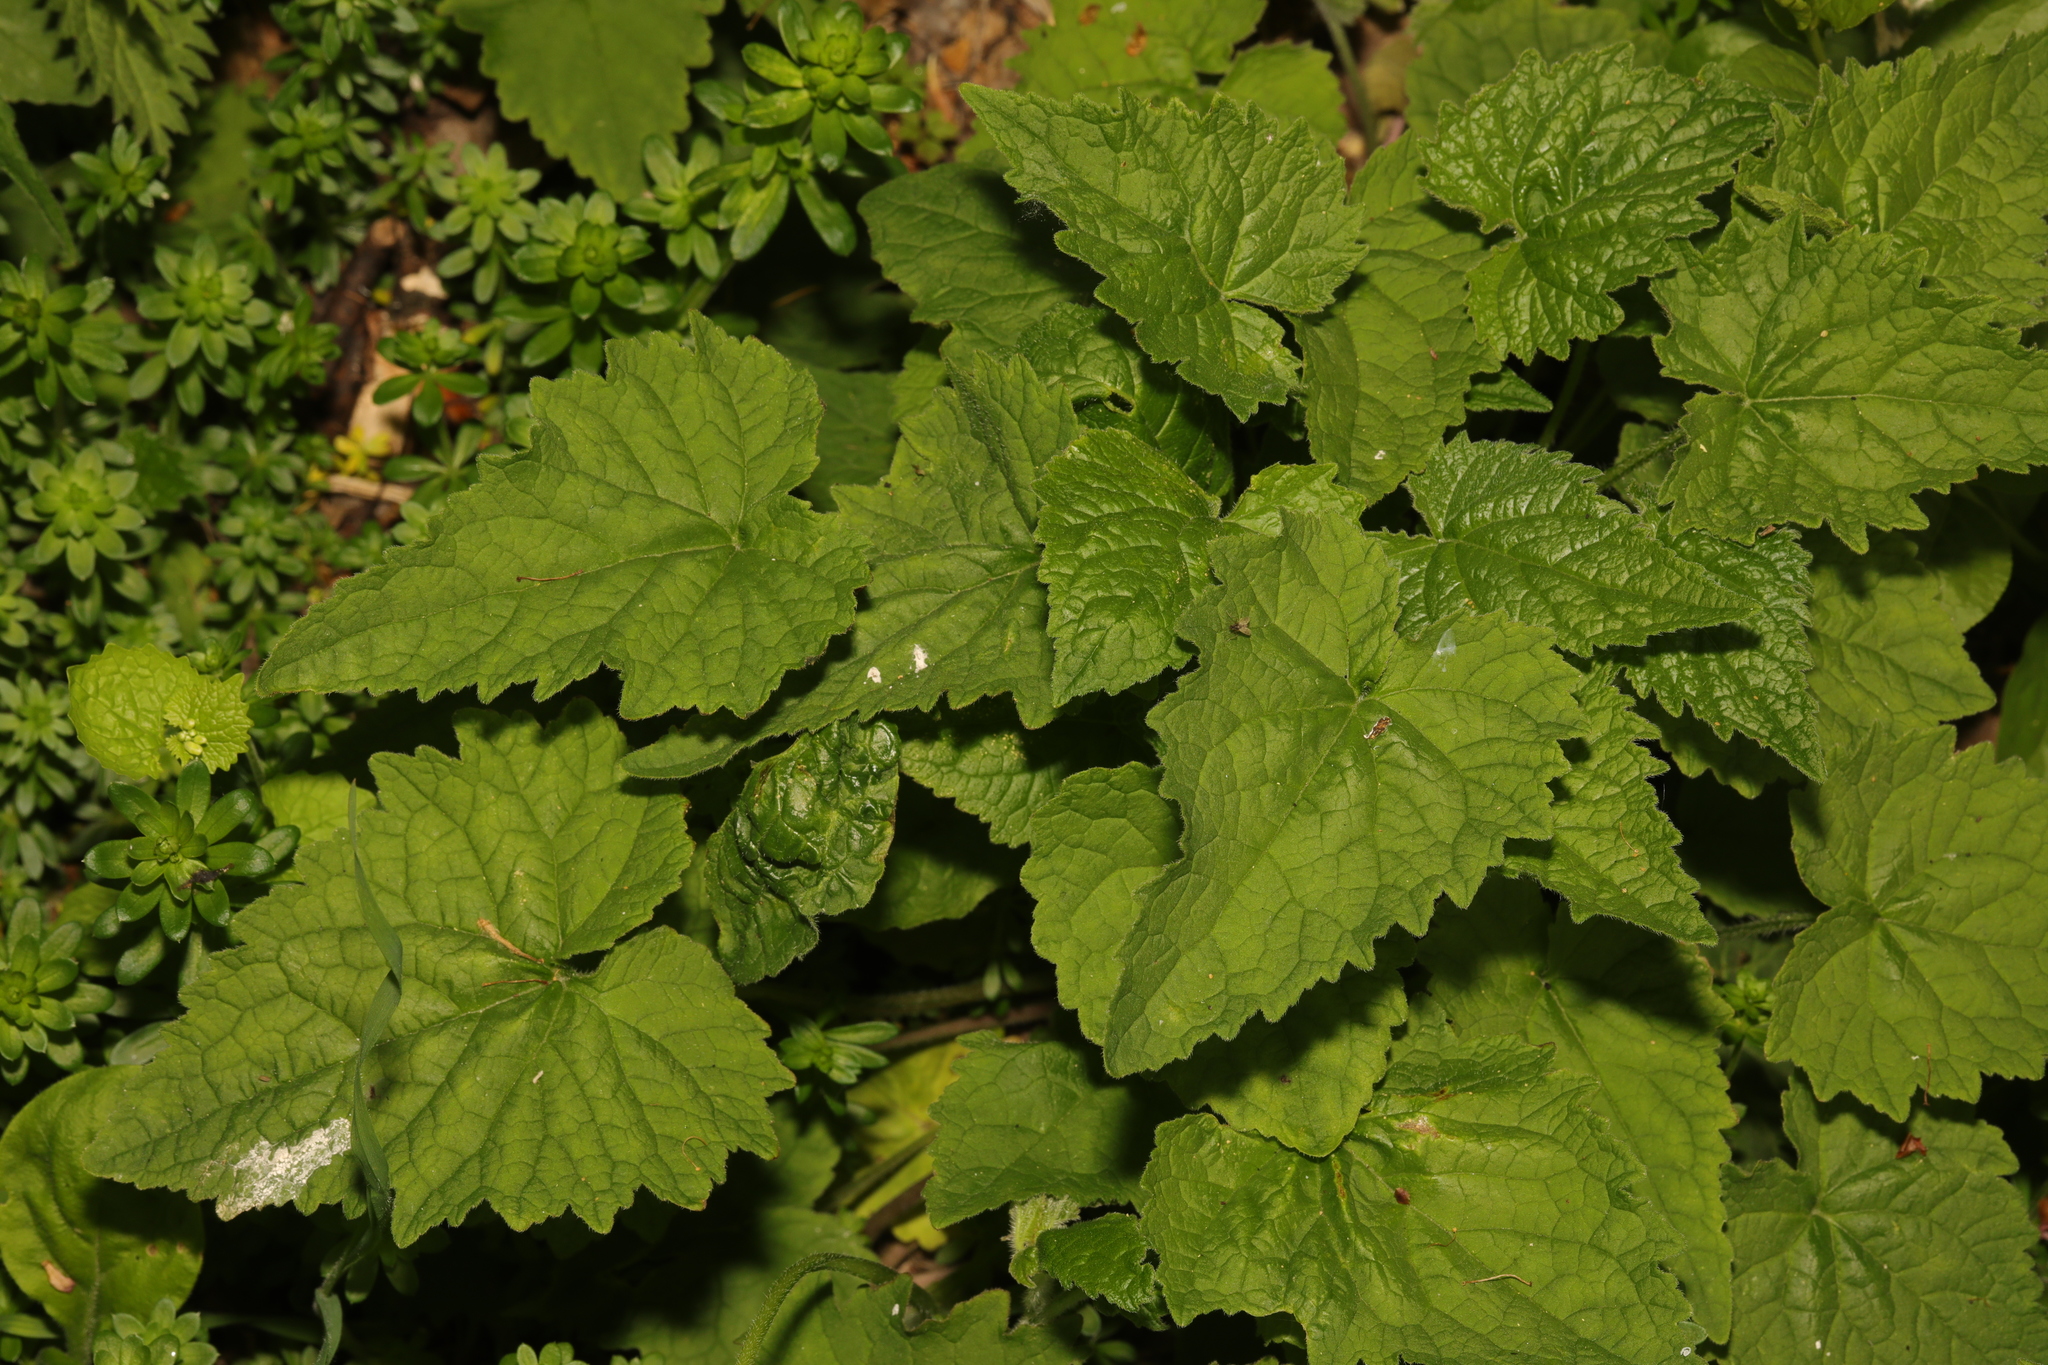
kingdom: Plantae
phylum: Tracheophyta
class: Magnoliopsida
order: Asterales
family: Campanulaceae
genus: Campanula
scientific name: Campanula trachelium
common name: Nettle-leaved bellflower
